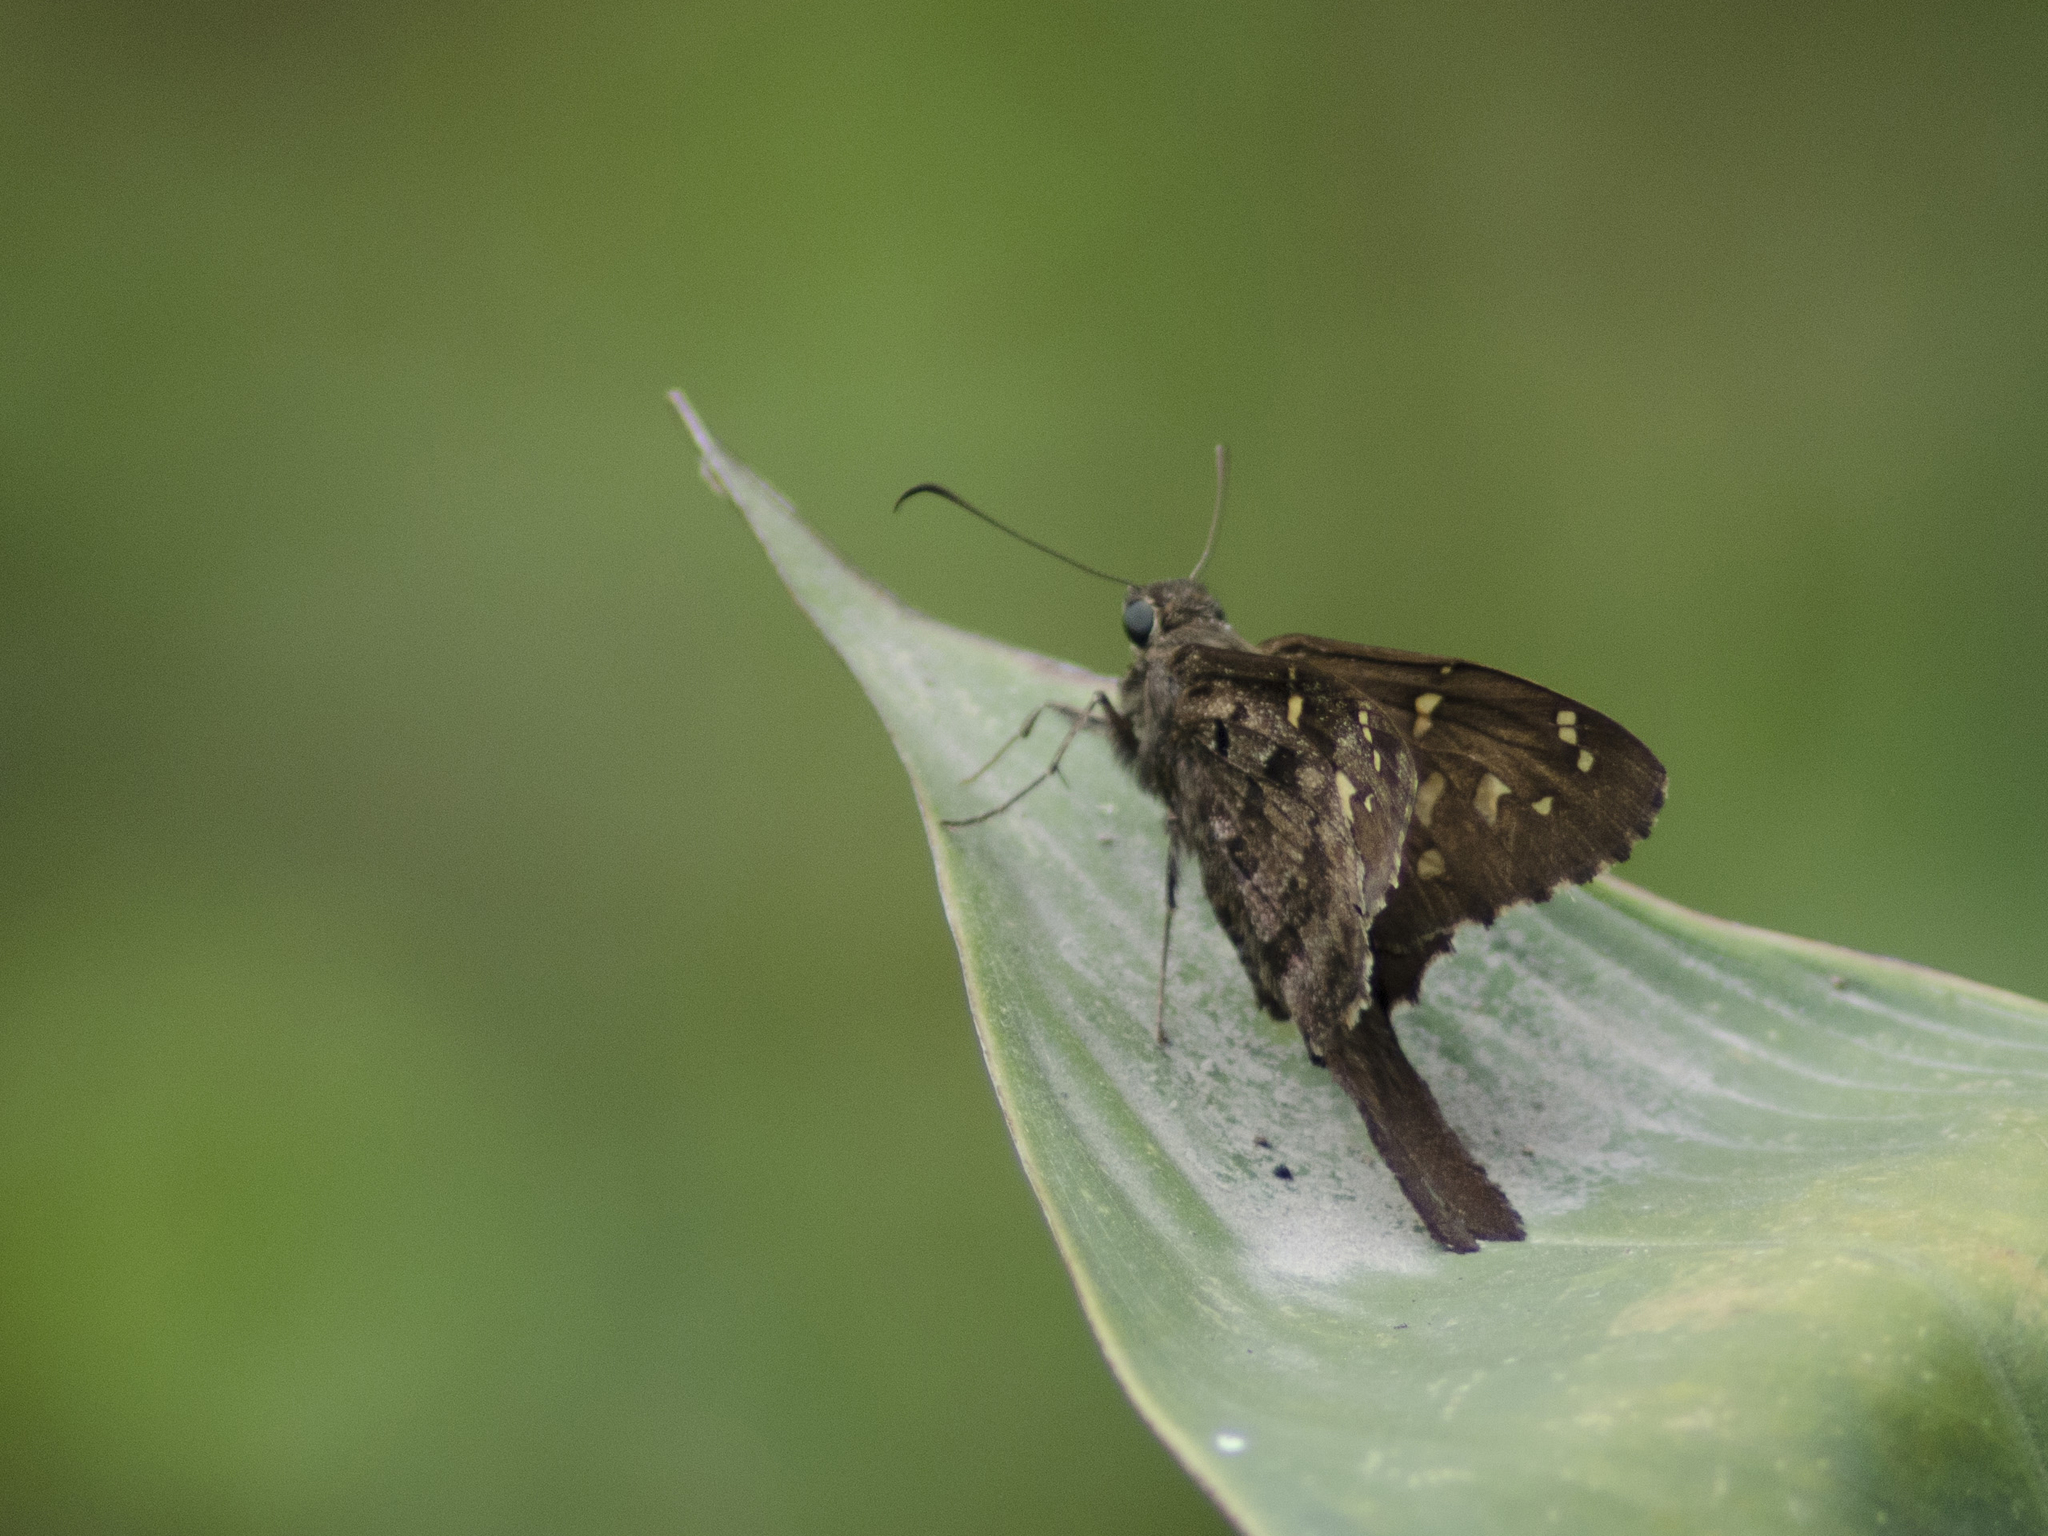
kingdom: Animalia
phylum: Arthropoda
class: Insecta
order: Lepidoptera
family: Hesperiidae
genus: Thorybes
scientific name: Thorybes
